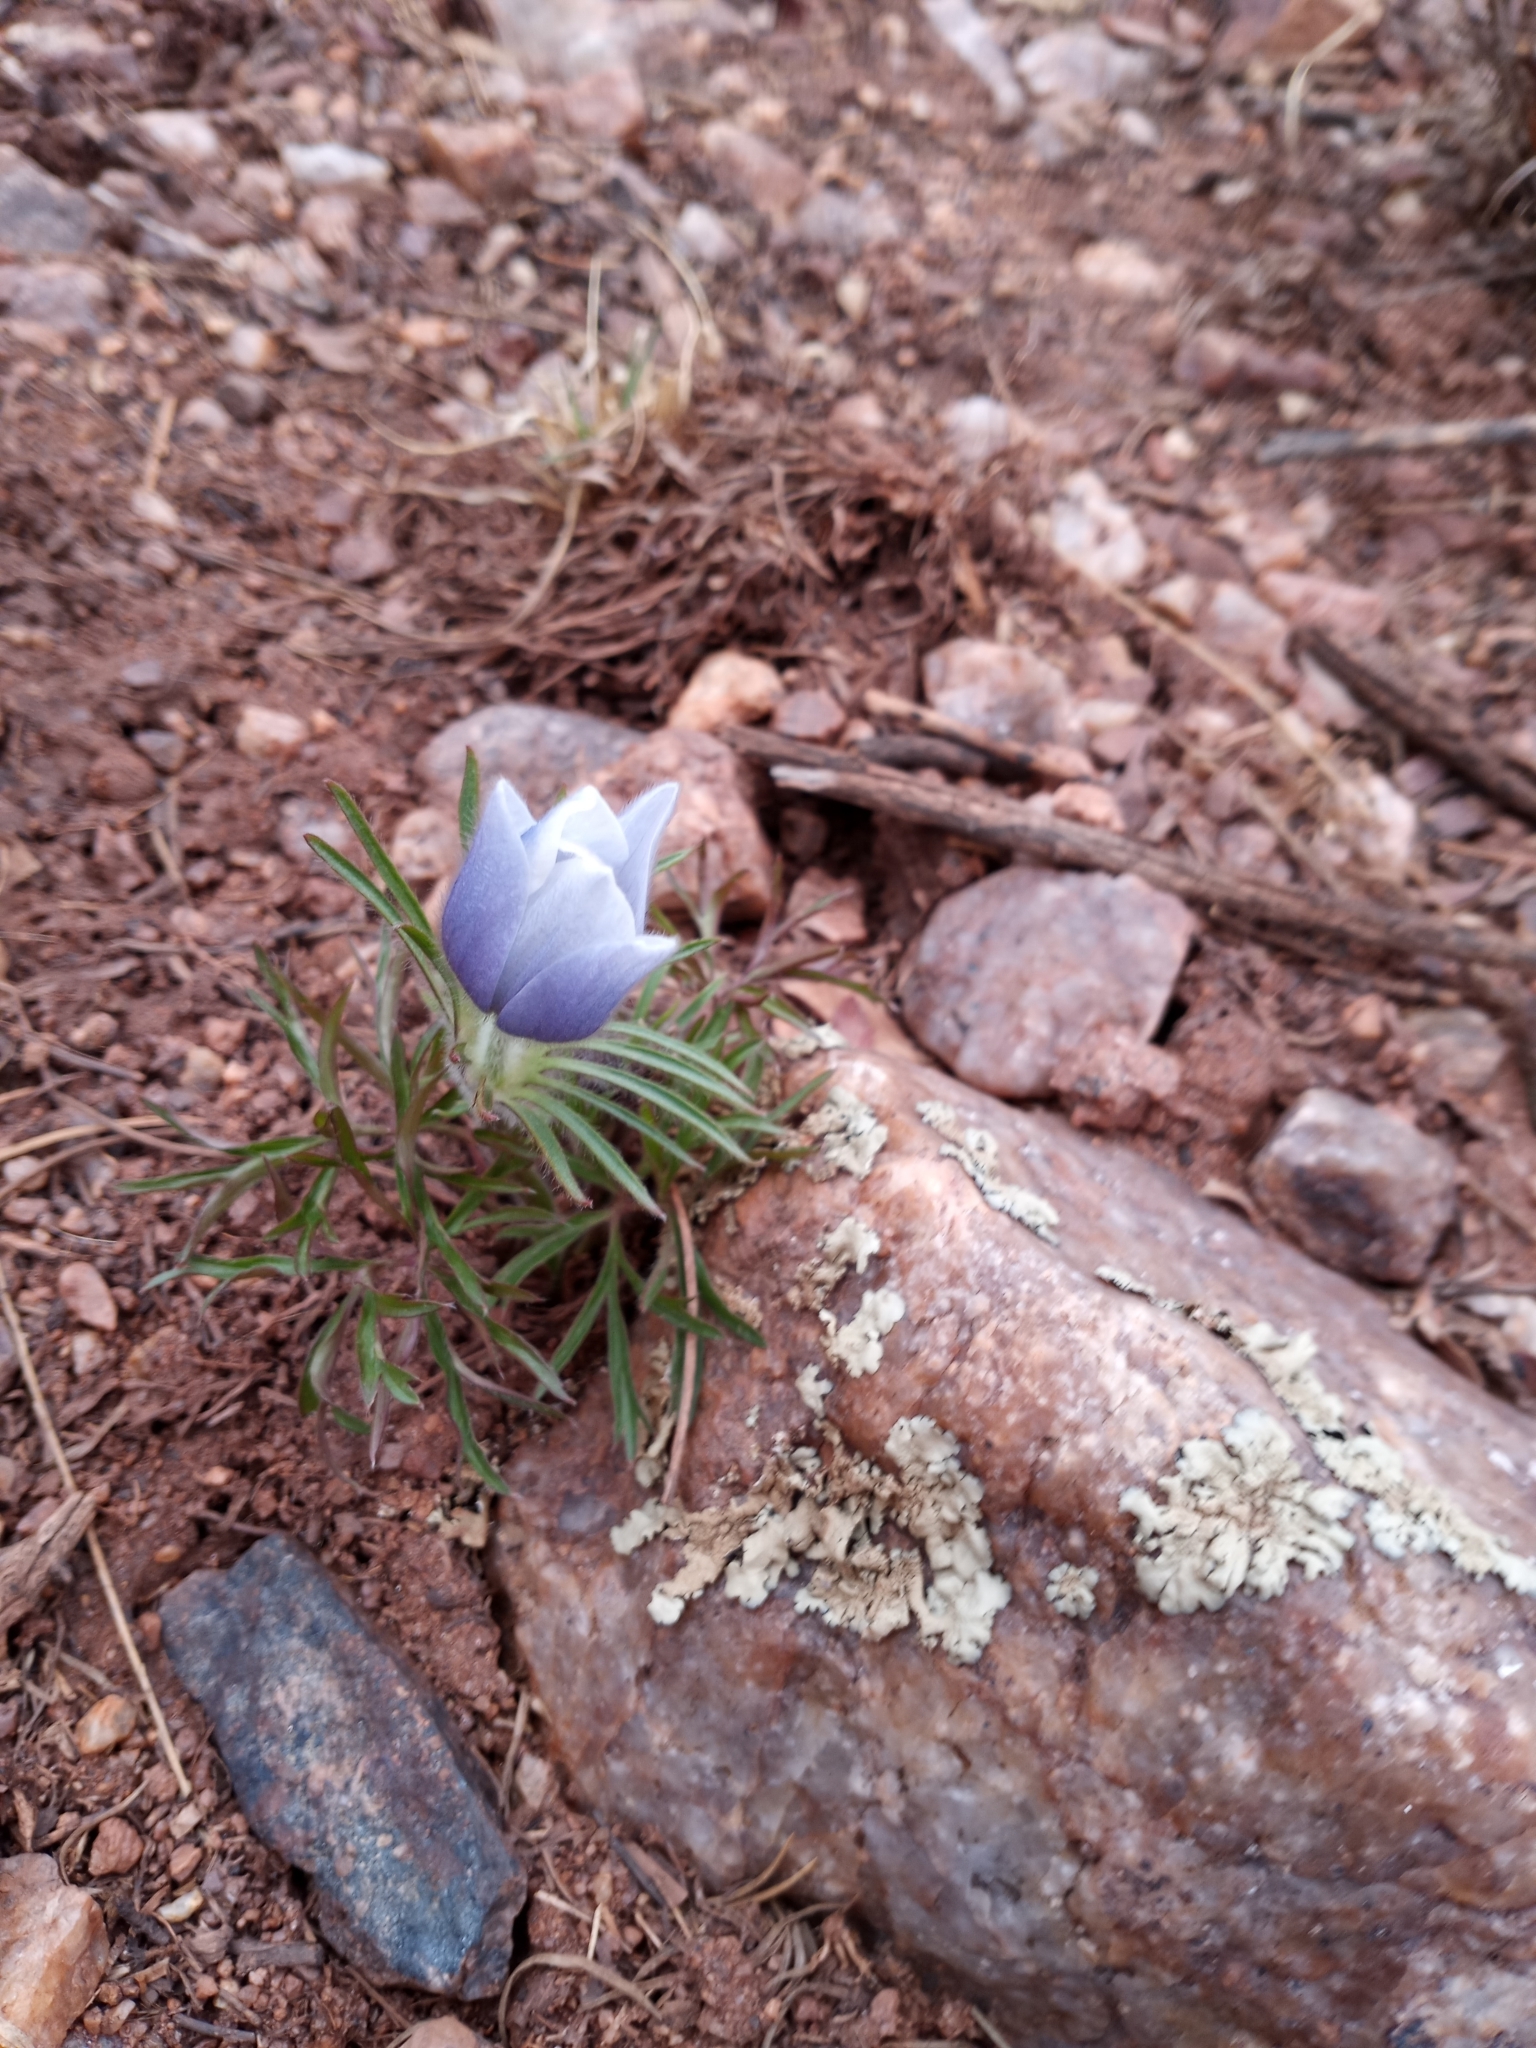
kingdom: Plantae
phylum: Tracheophyta
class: Magnoliopsida
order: Ranunculales
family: Ranunculaceae
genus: Pulsatilla
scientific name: Pulsatilla nuttalliana
